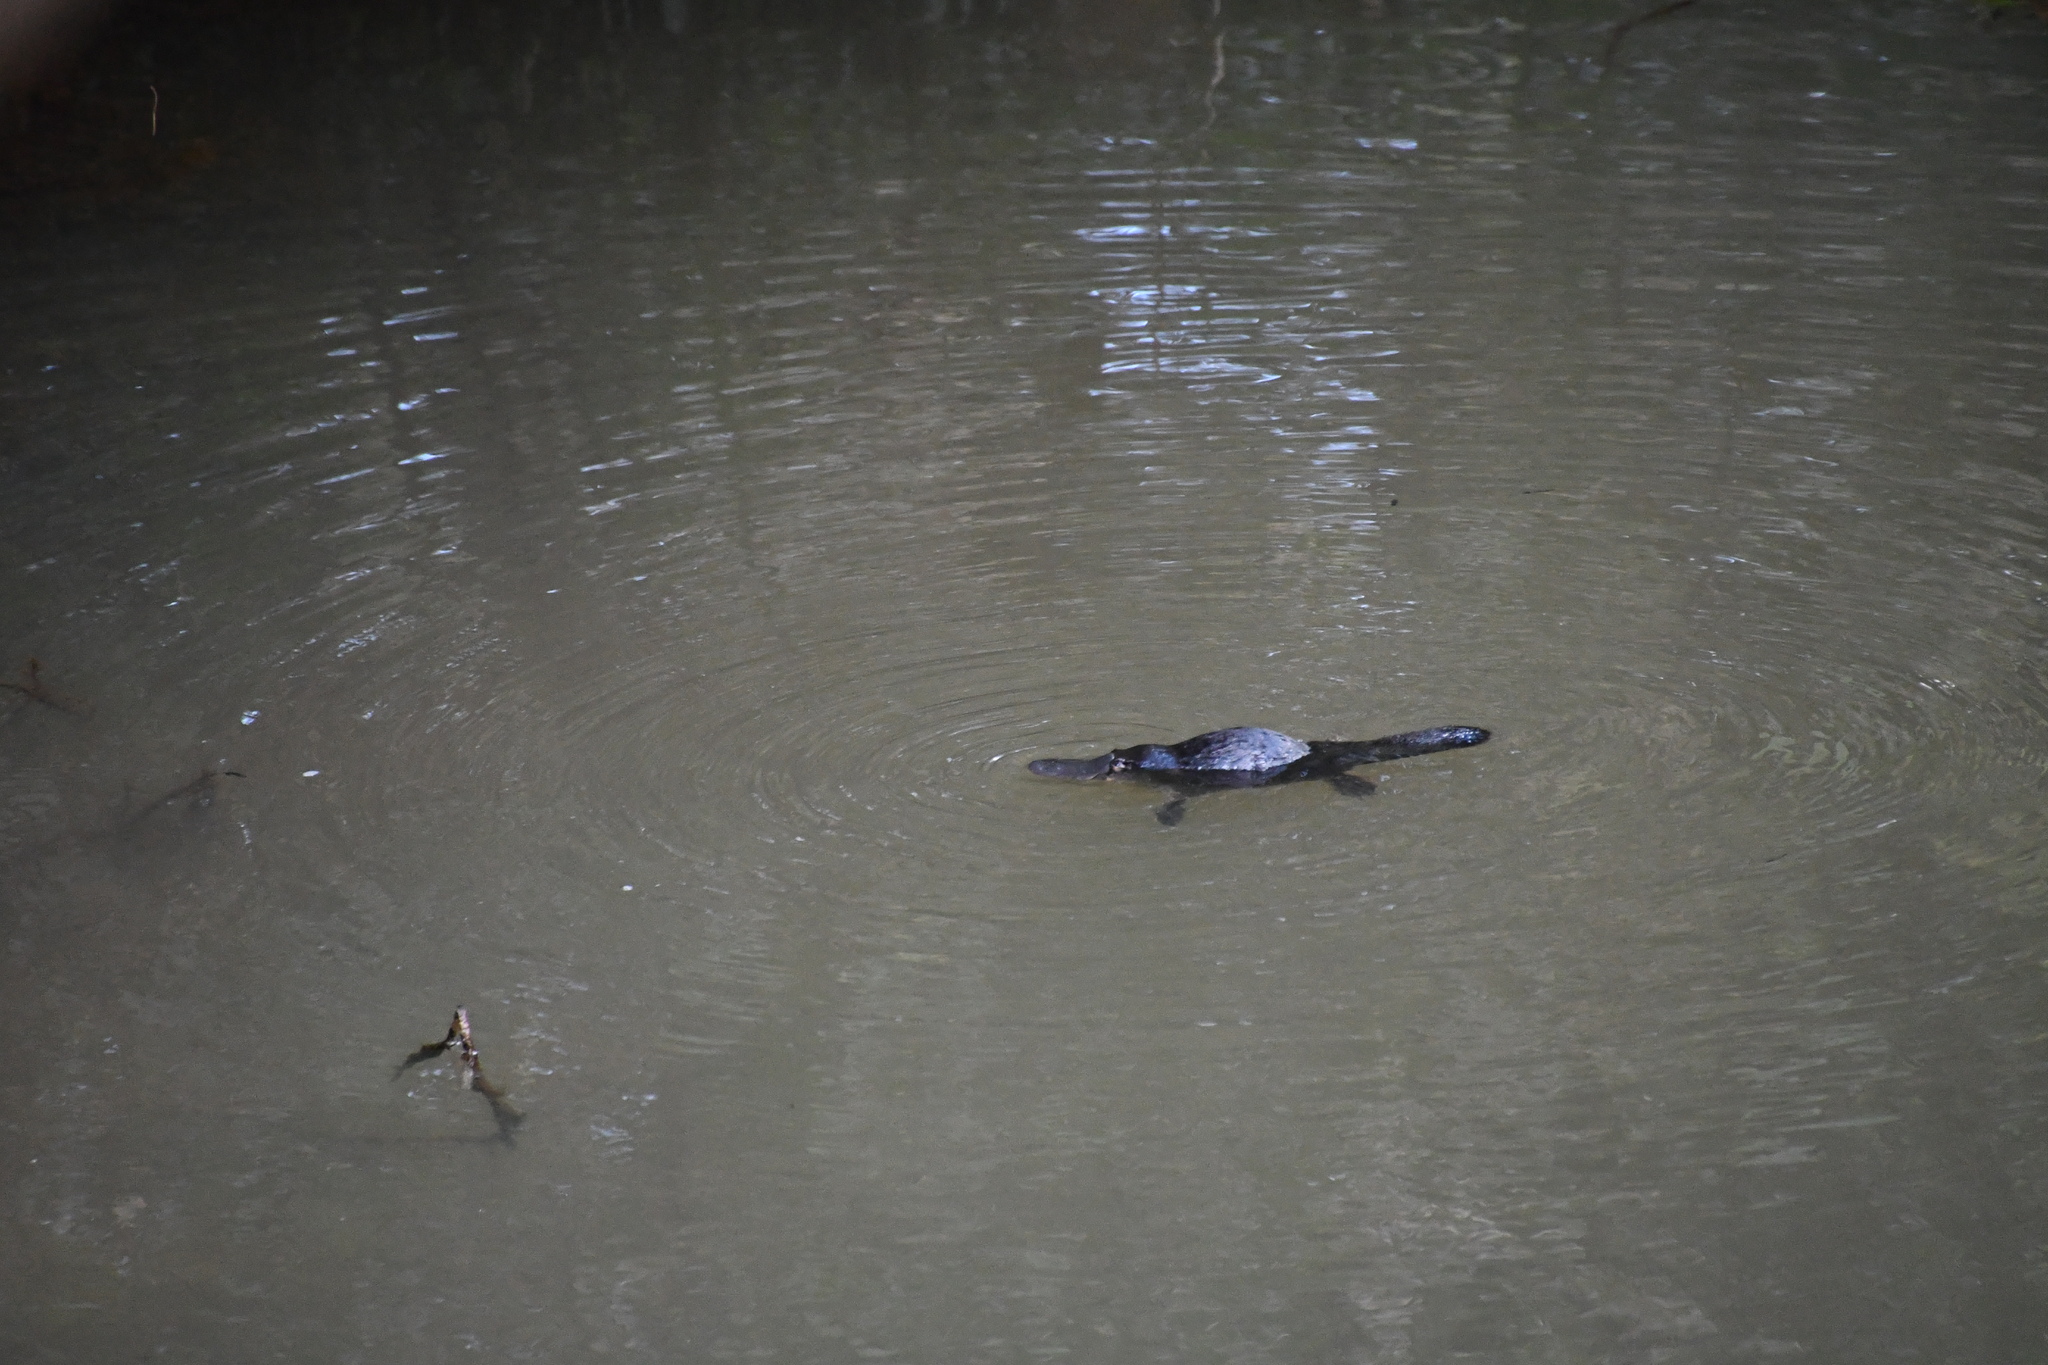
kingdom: Animalia
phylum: Chordata
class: Mammalia
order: Monotremata
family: Ornithorhynchidae
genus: Ornithorhynchus
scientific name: Ornithorhynchus anatinus
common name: Platypus
